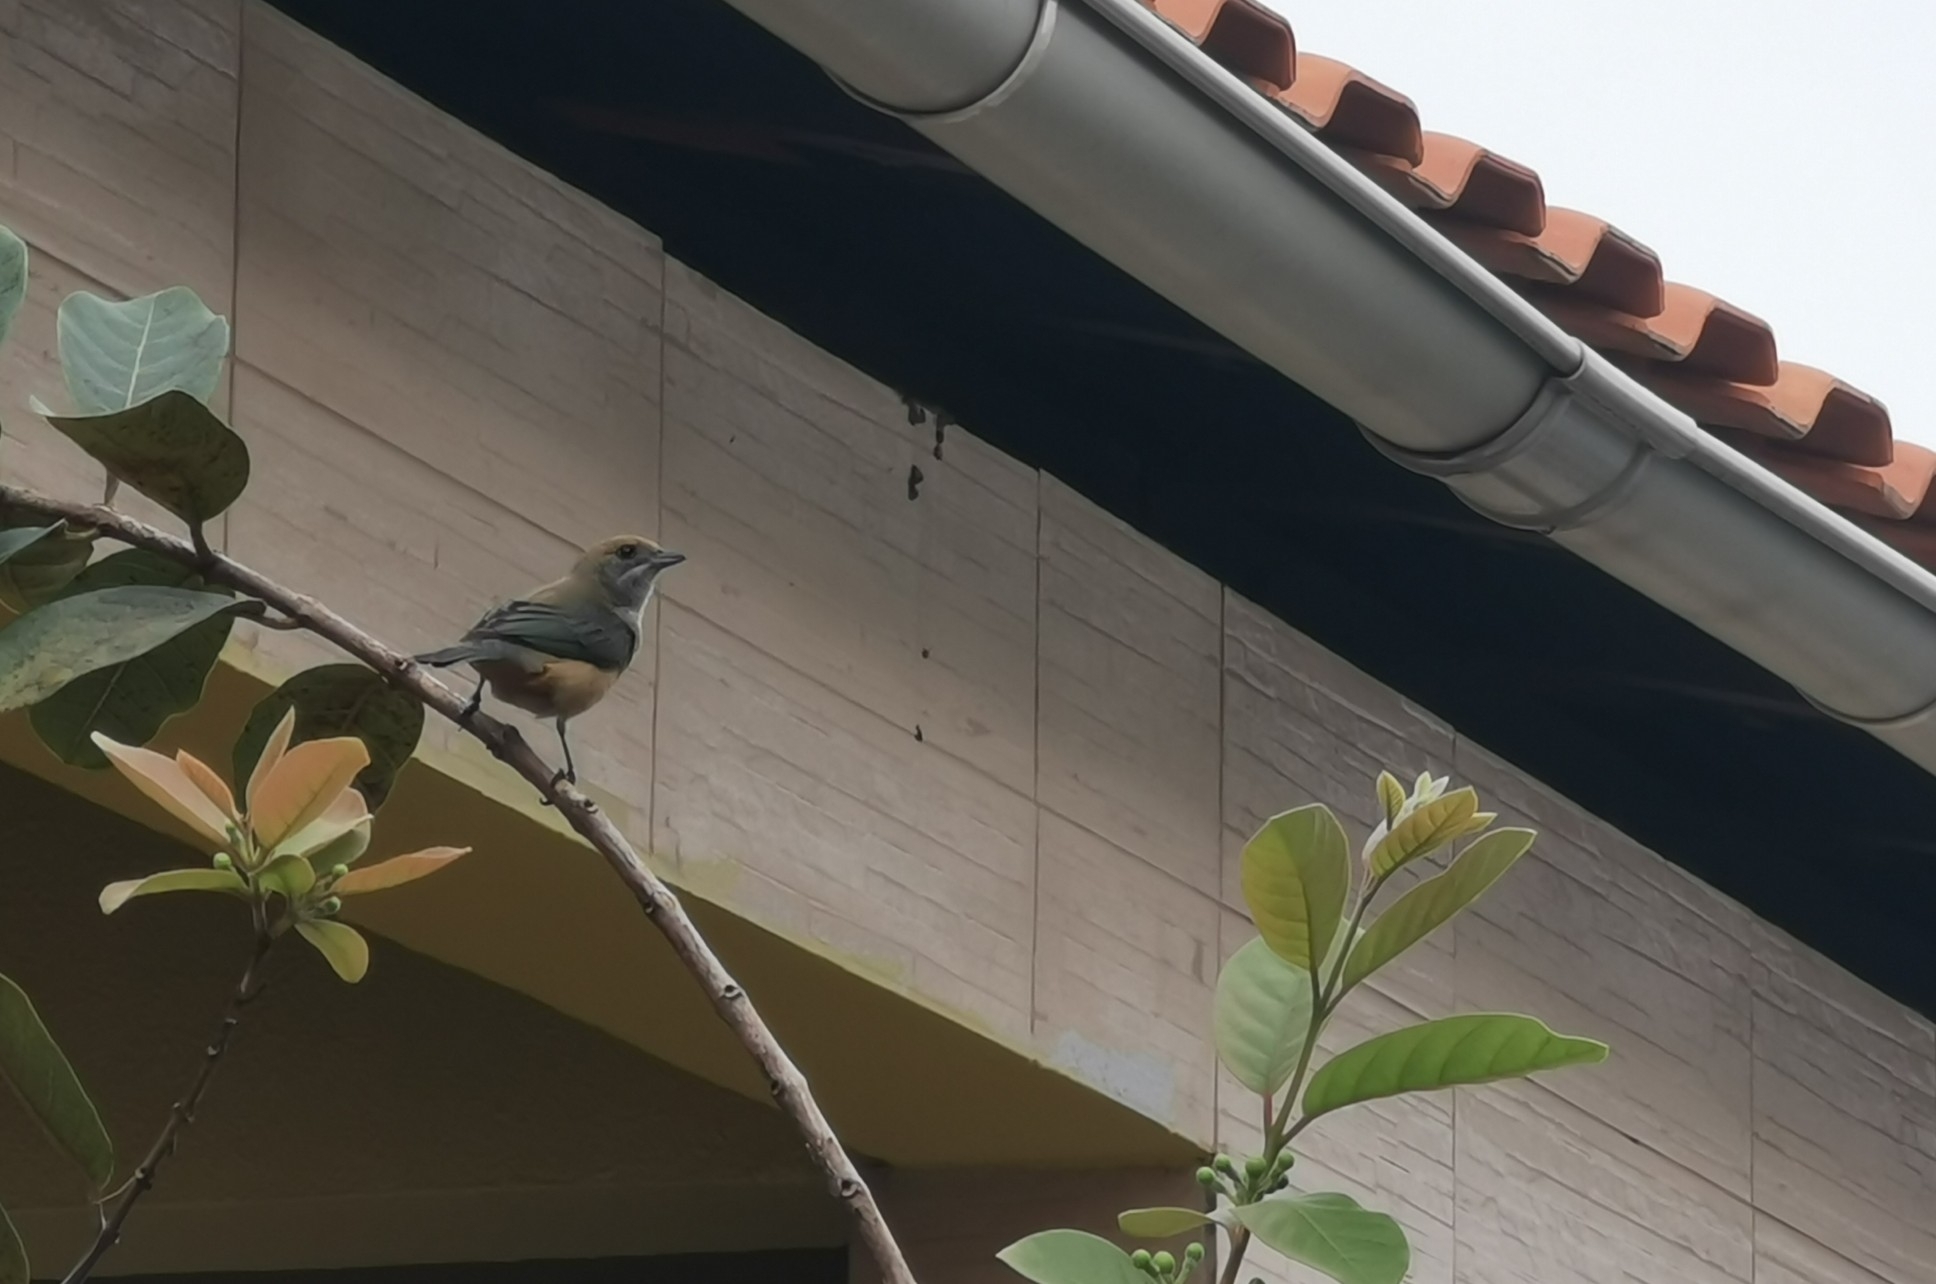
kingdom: Animalia
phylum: Chordata
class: Aves
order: Passeriformes
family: Thraupidae
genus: Stilpnia
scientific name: Stilpnia cayana
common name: Burnished-buff tanager
